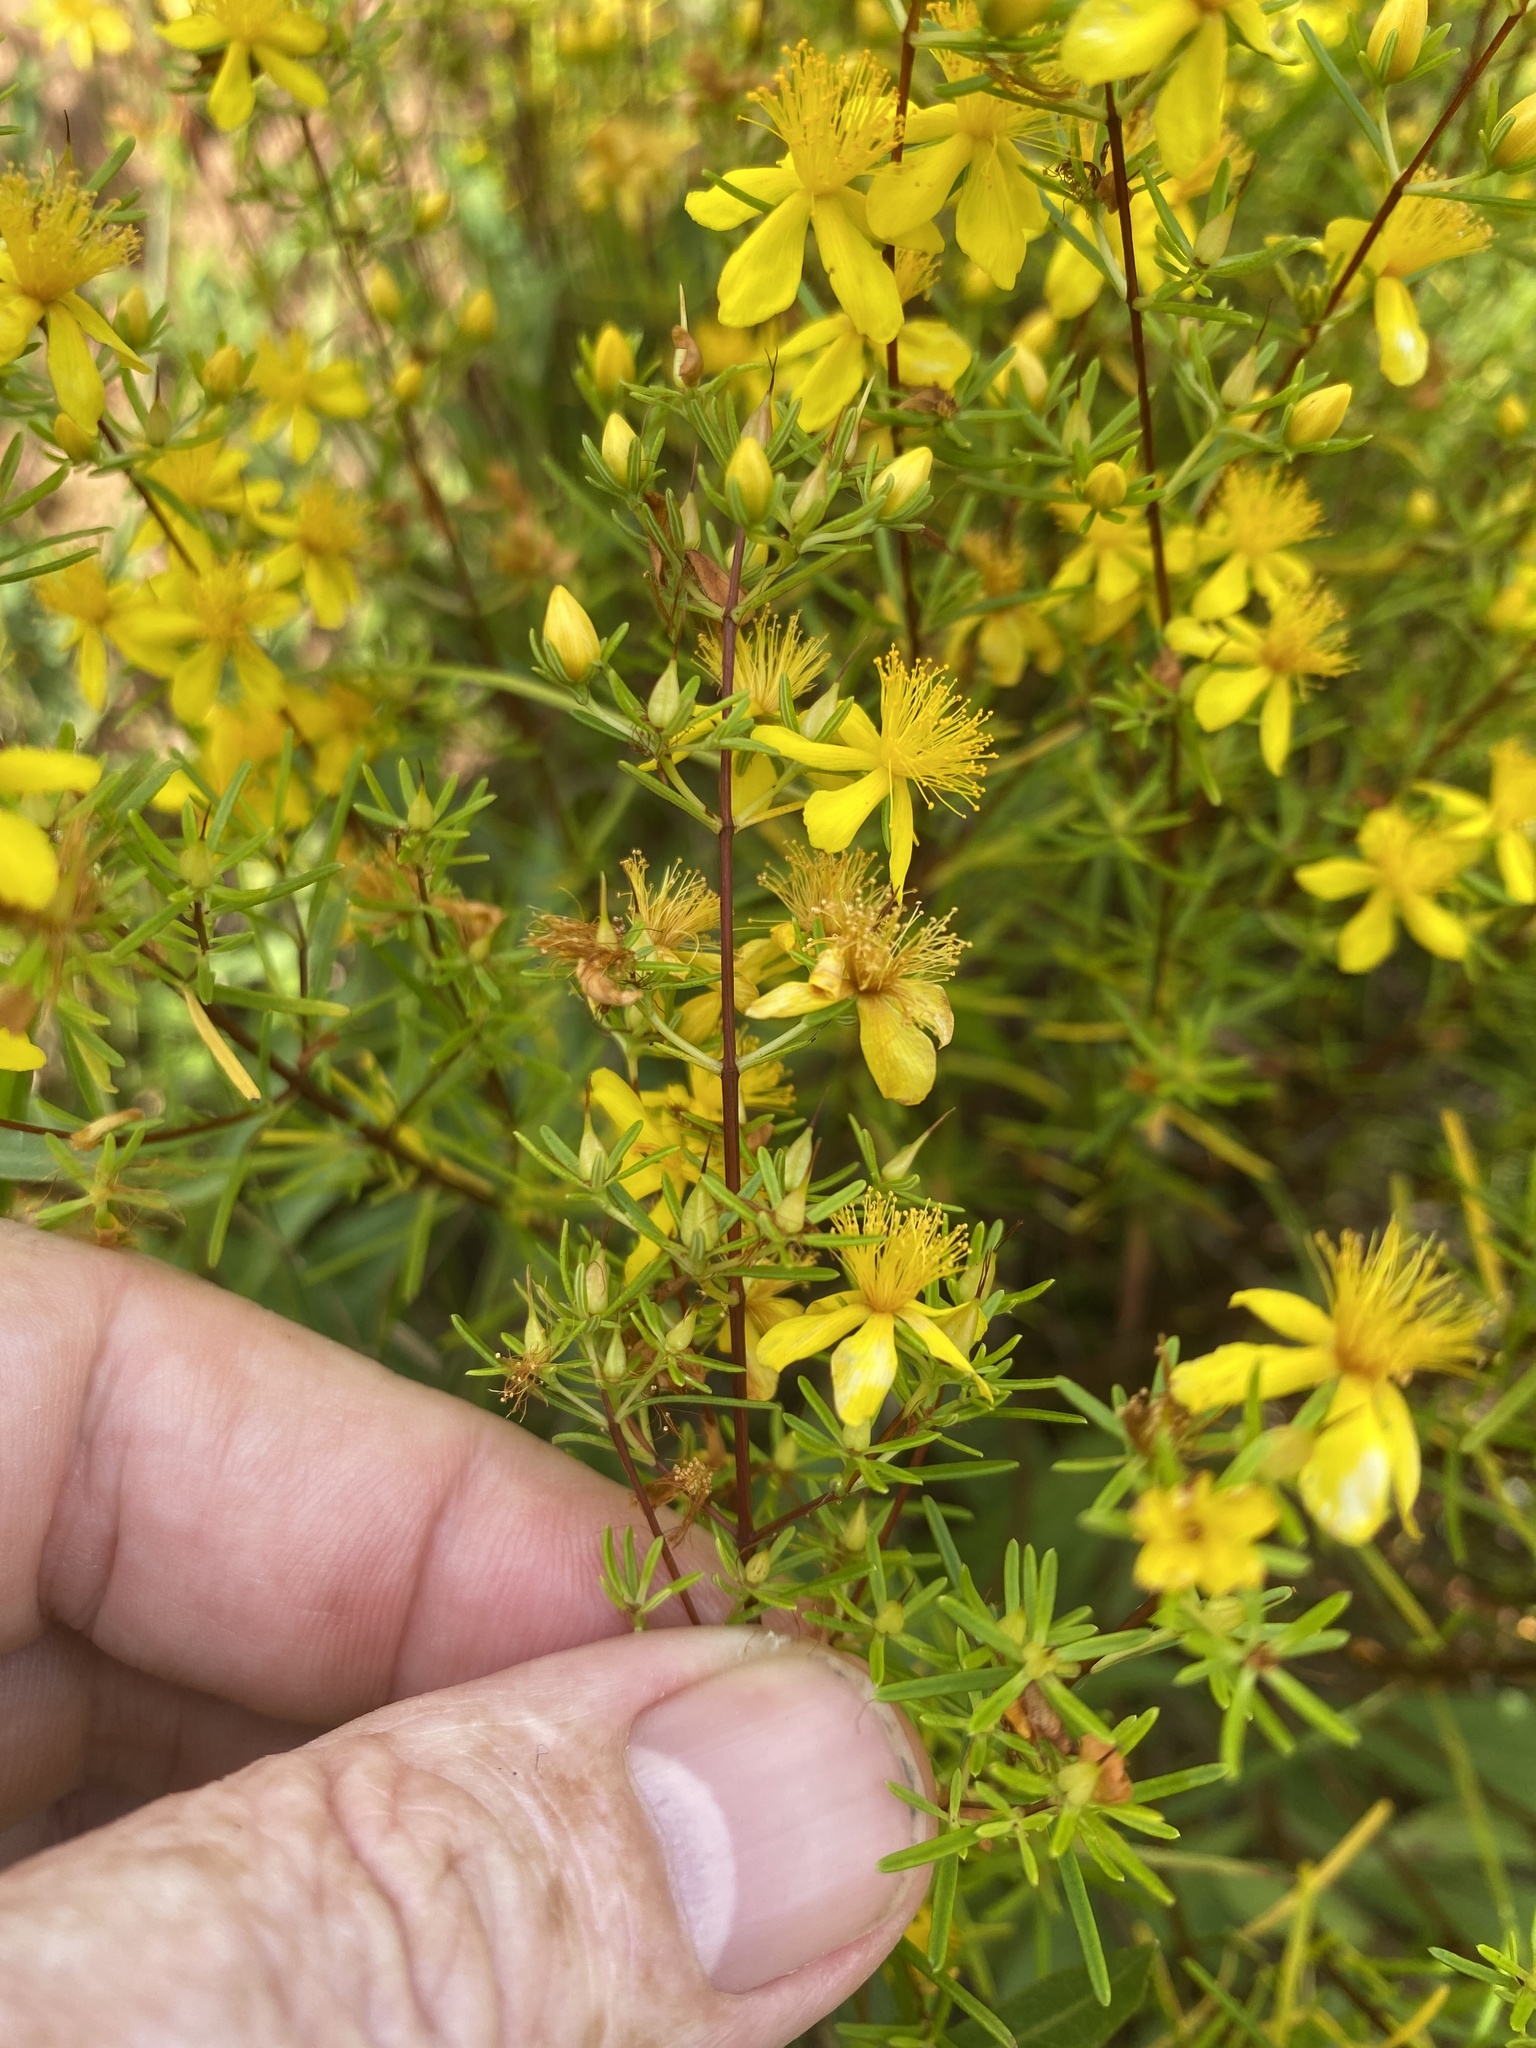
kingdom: Plantae
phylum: Tracheophyta
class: Magnoliopsida
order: Malpighiales
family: Hypericaceae
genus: Hypericum
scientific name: Hypericum lloydii
